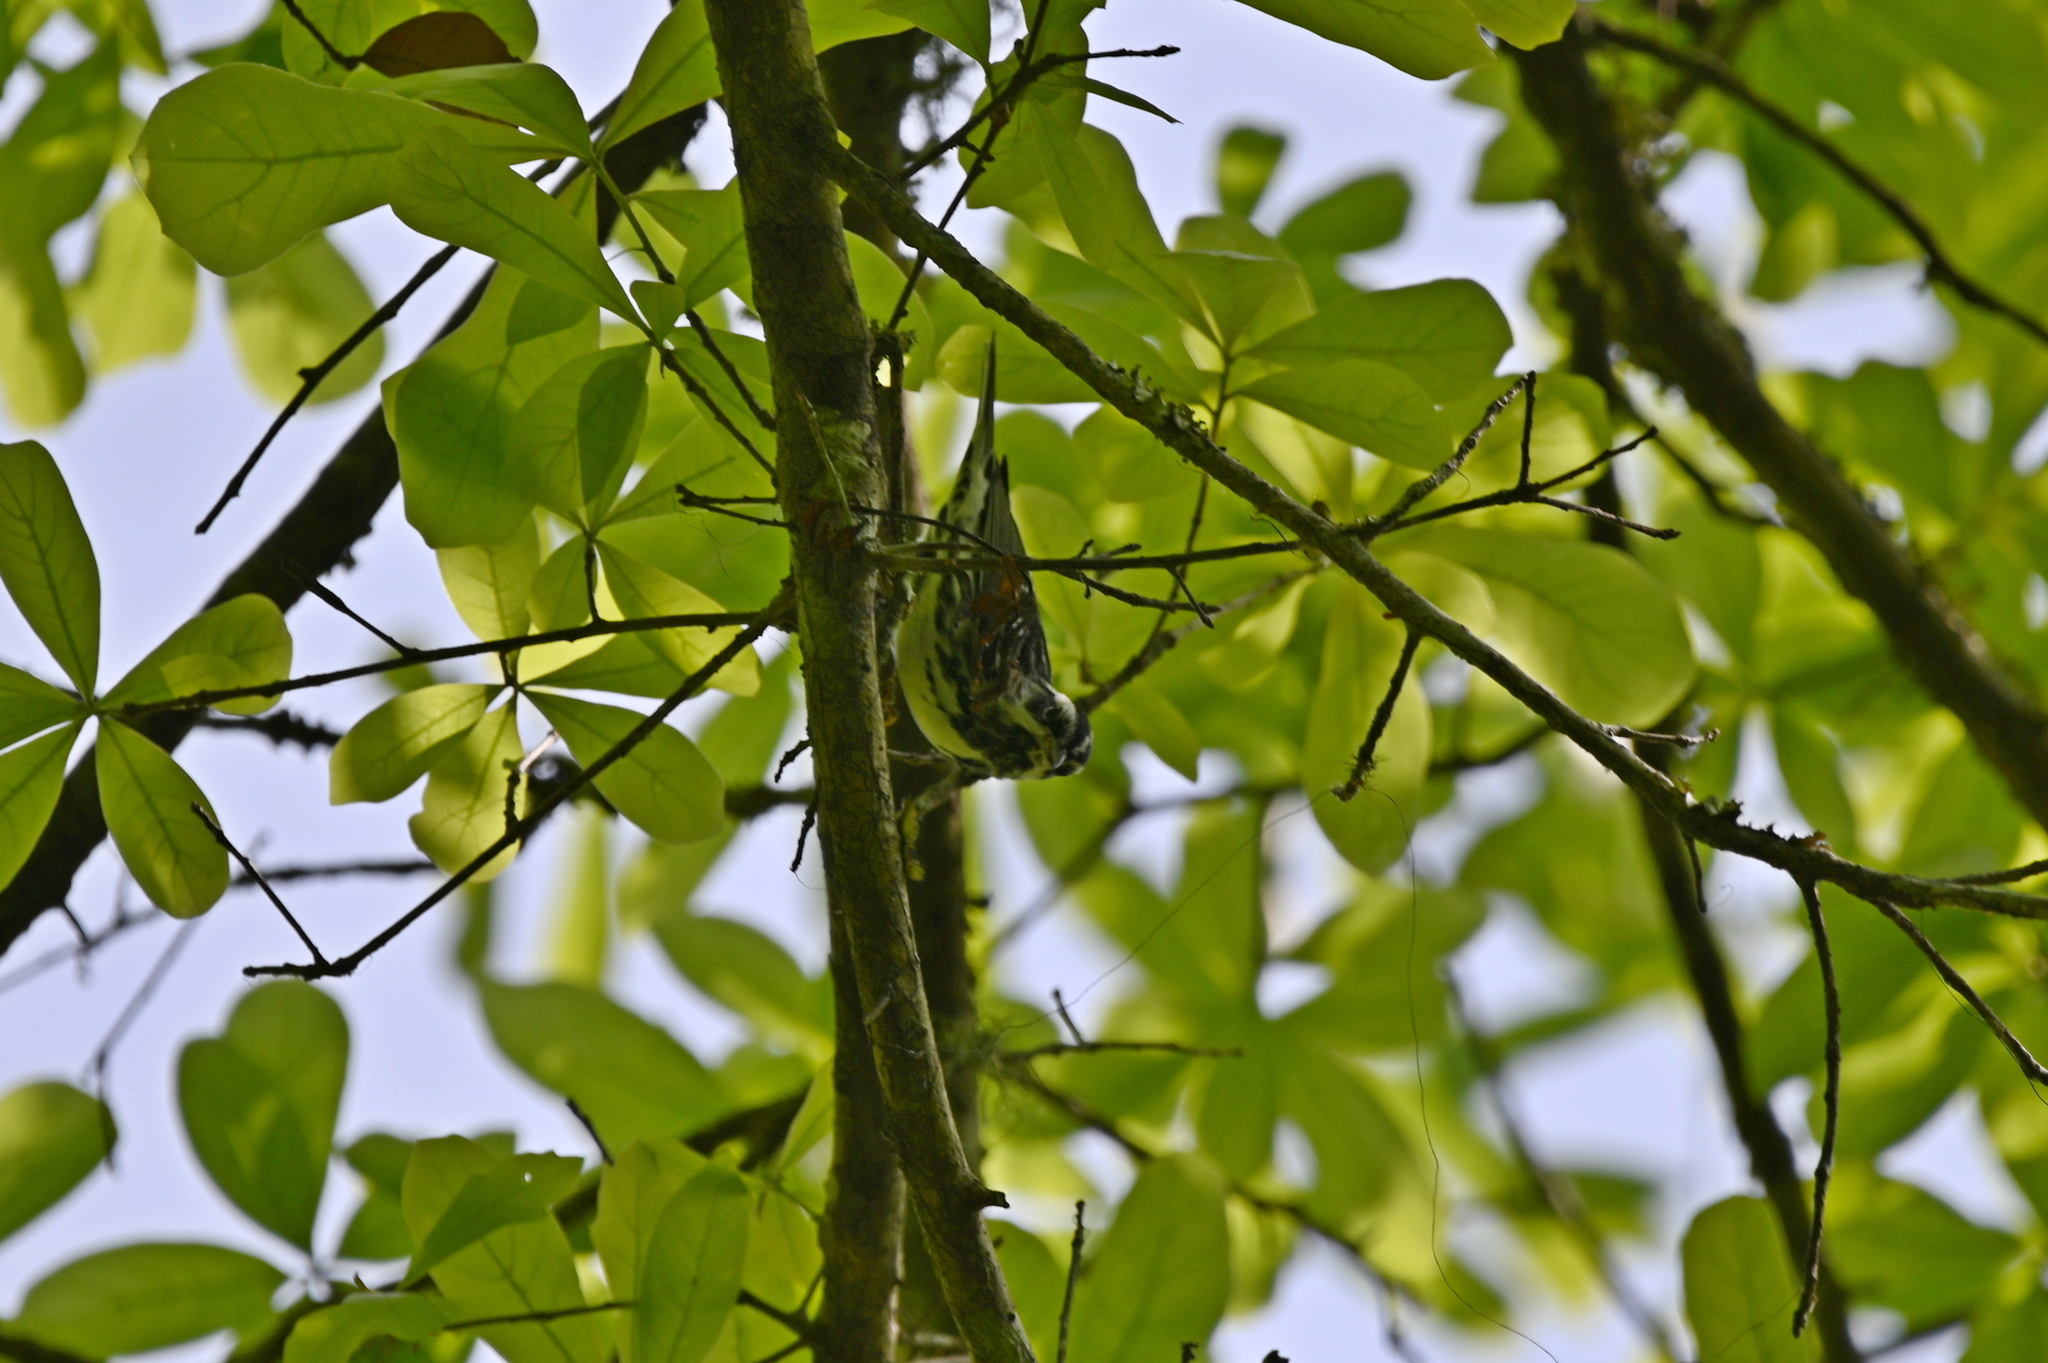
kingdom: Animalia
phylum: Chordata
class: Aves
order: Passeriformes
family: Parulidae
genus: Mniotilta
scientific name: Mniotilta varia
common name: Black-and-white warbler
